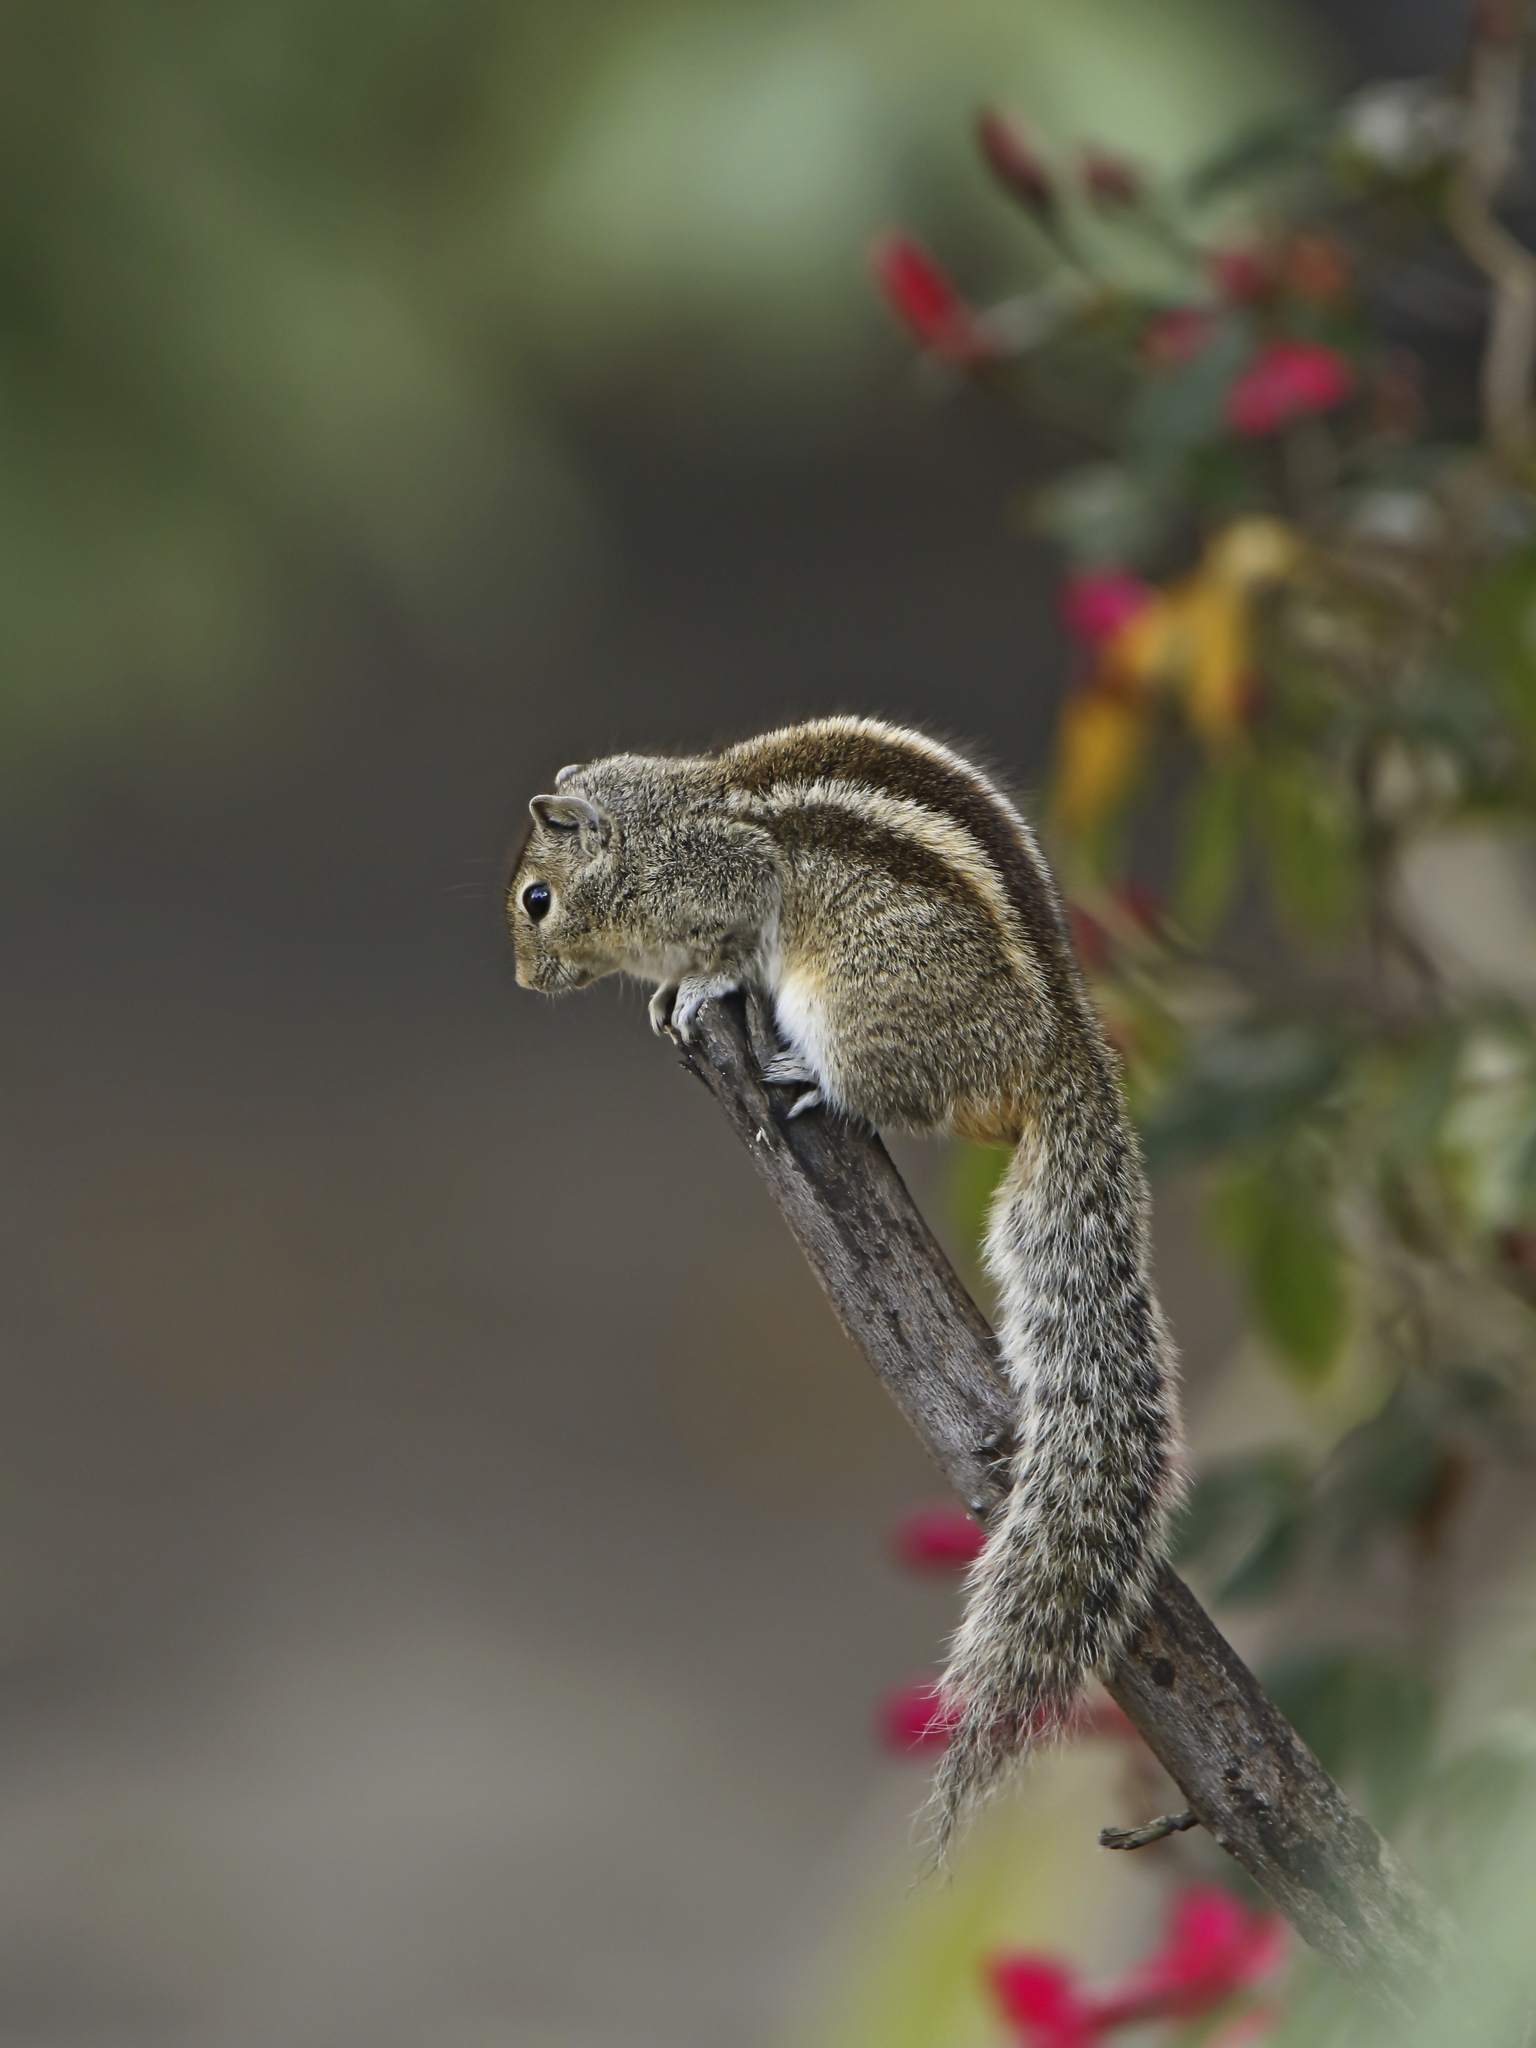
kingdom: Animalia
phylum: Chordata
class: Mammalia
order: Rodentia
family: Sciuridae
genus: Funambulus
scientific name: Funambulus palmarum
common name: Indian palm squirrel
